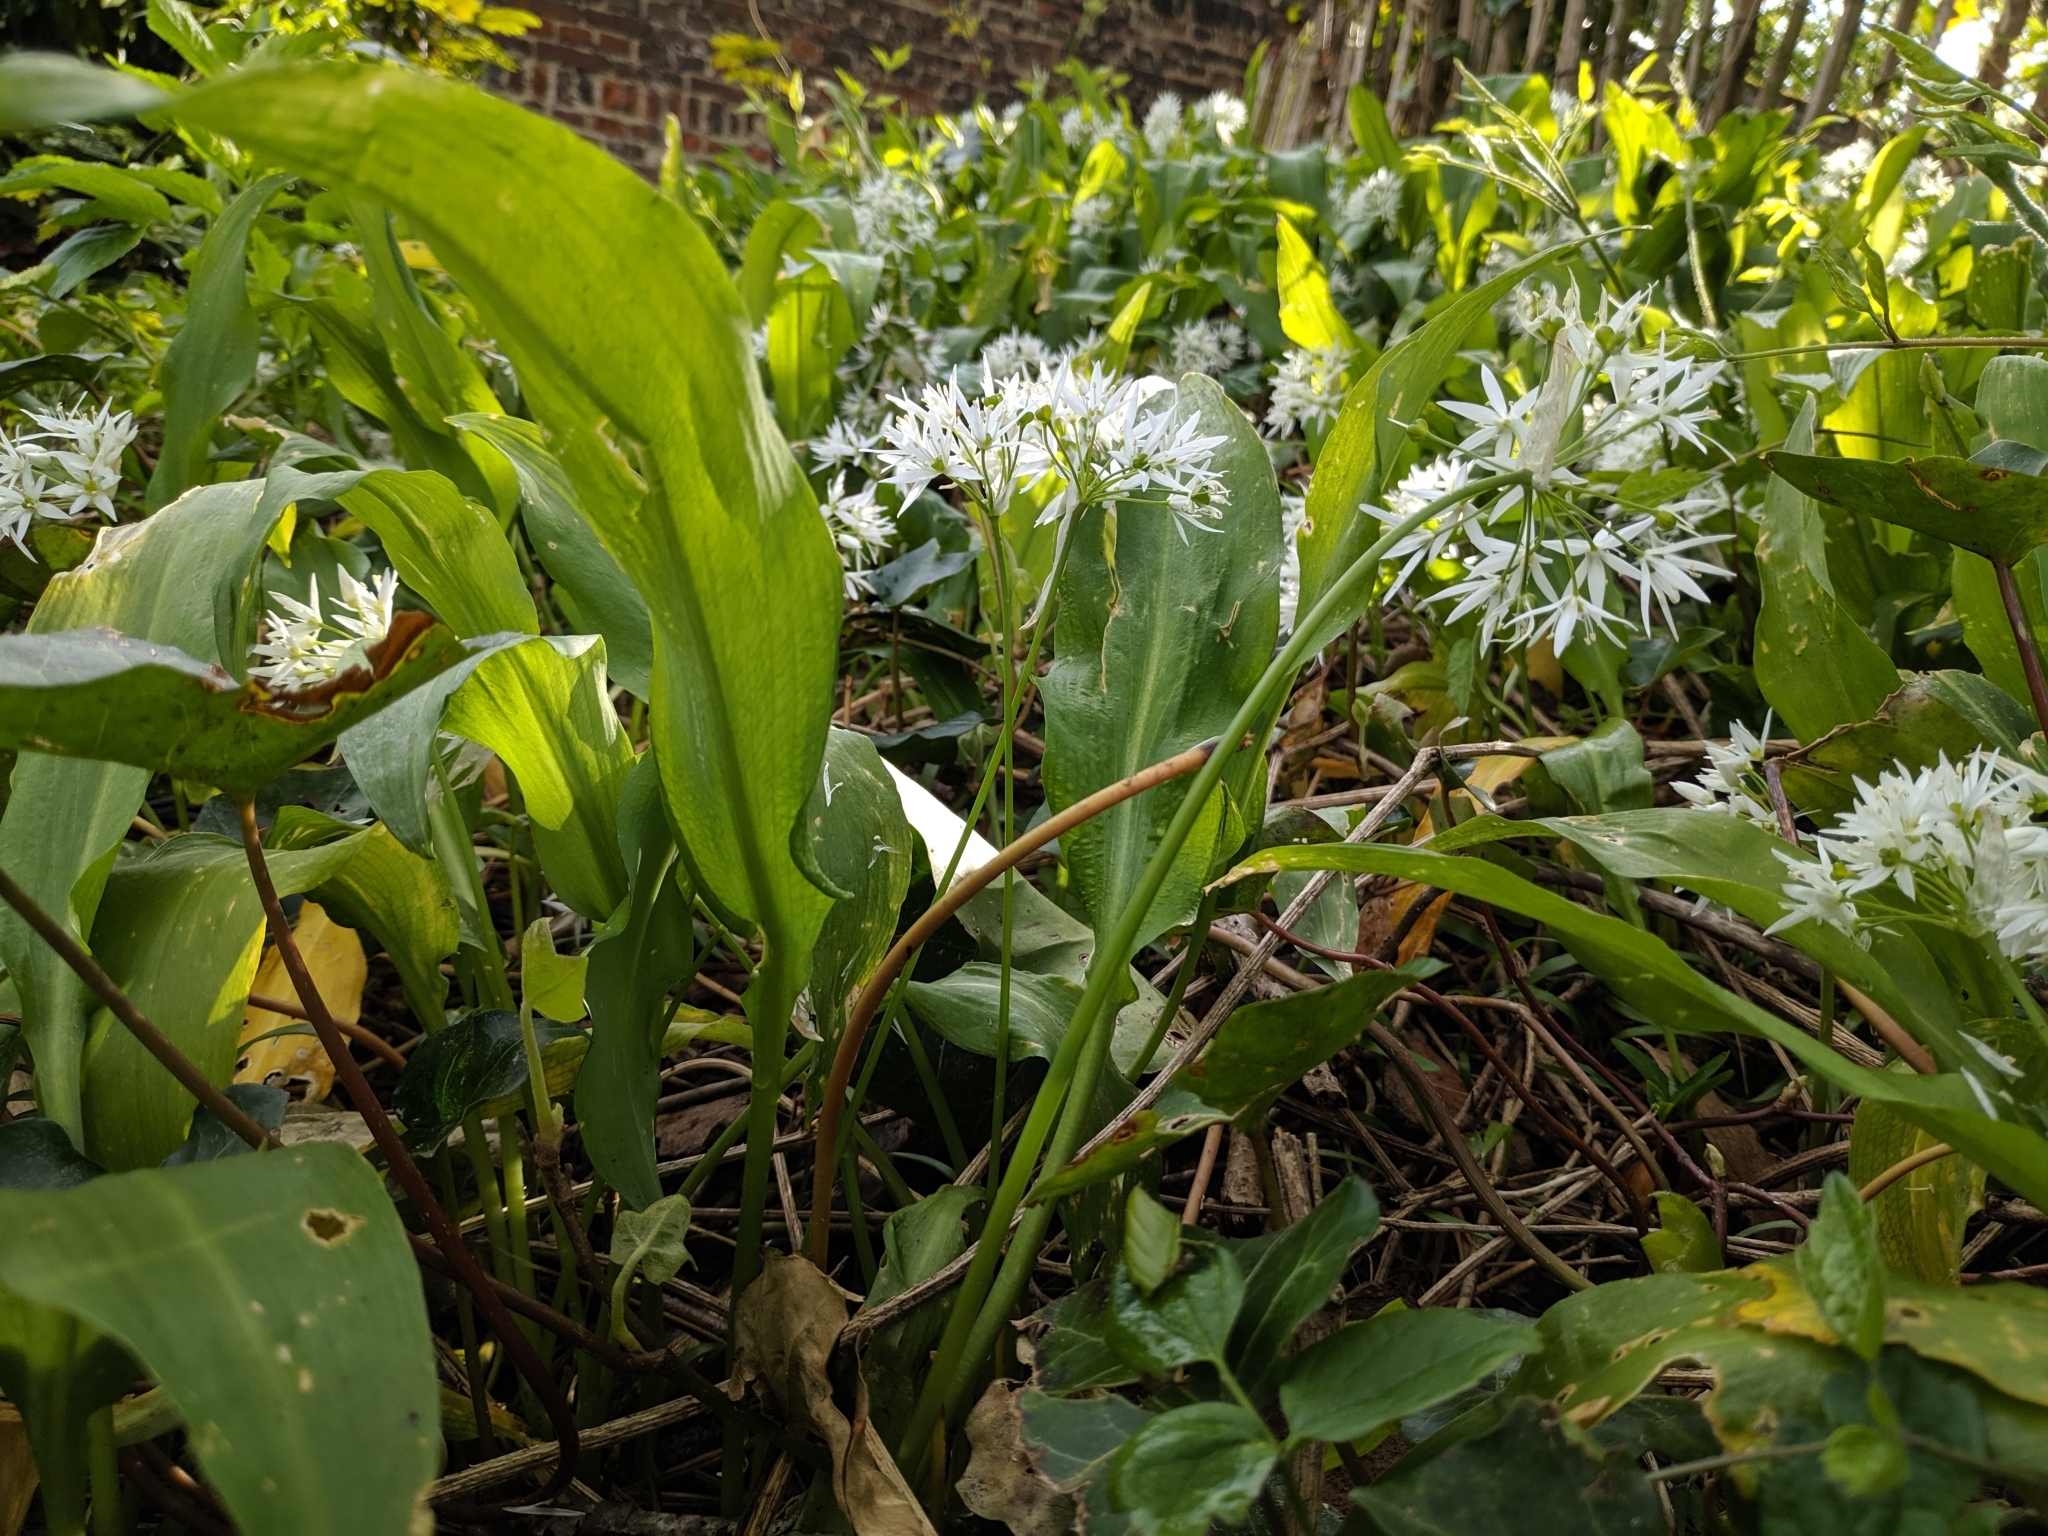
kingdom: Plantae
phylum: Tracheophyta
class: Liliopsida
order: Asparagales
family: Amaryllidaceae
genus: Allium
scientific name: Allium ursinum
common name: Ramsons
